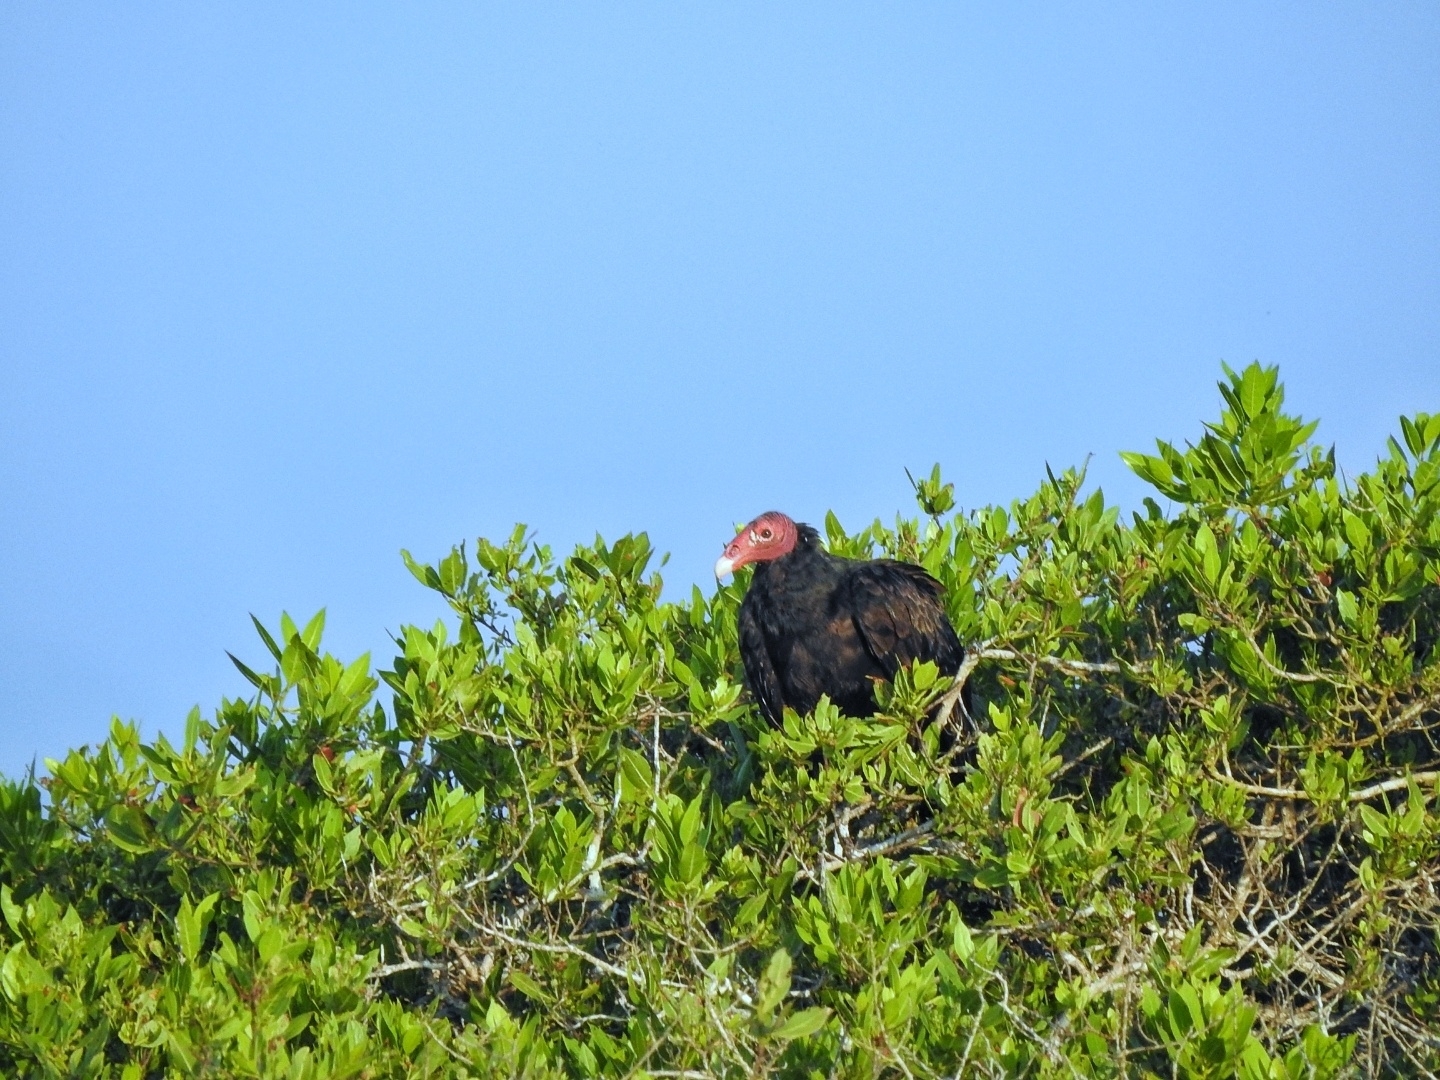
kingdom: Animalia
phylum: Chordata
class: Aves
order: Accipitriformes
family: Cathartidae
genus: Cathartes
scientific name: Cathartes aura
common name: Turkey vulture
